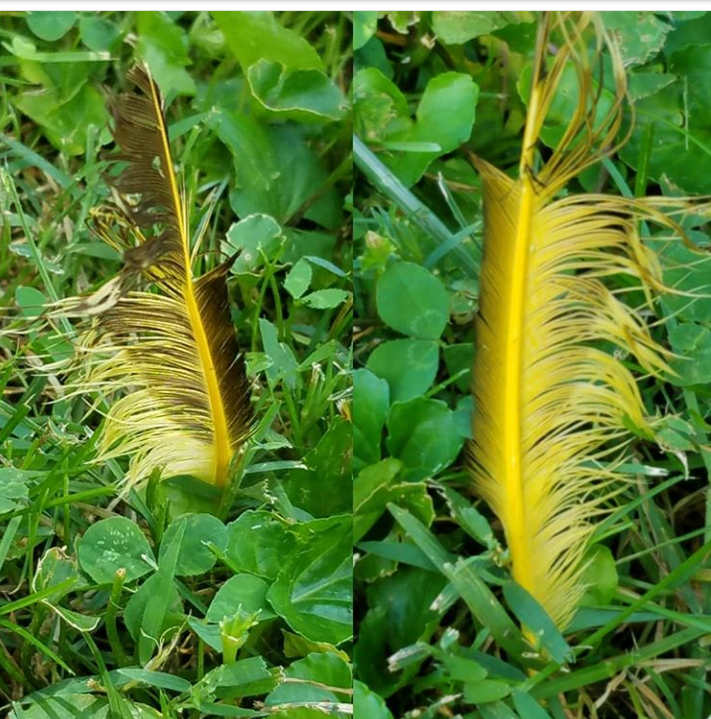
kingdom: Animalia
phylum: Chordata
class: Aves
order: Piciformes
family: Picidae
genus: Colaptes
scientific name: Colaptes auratus
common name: Northern flicker
